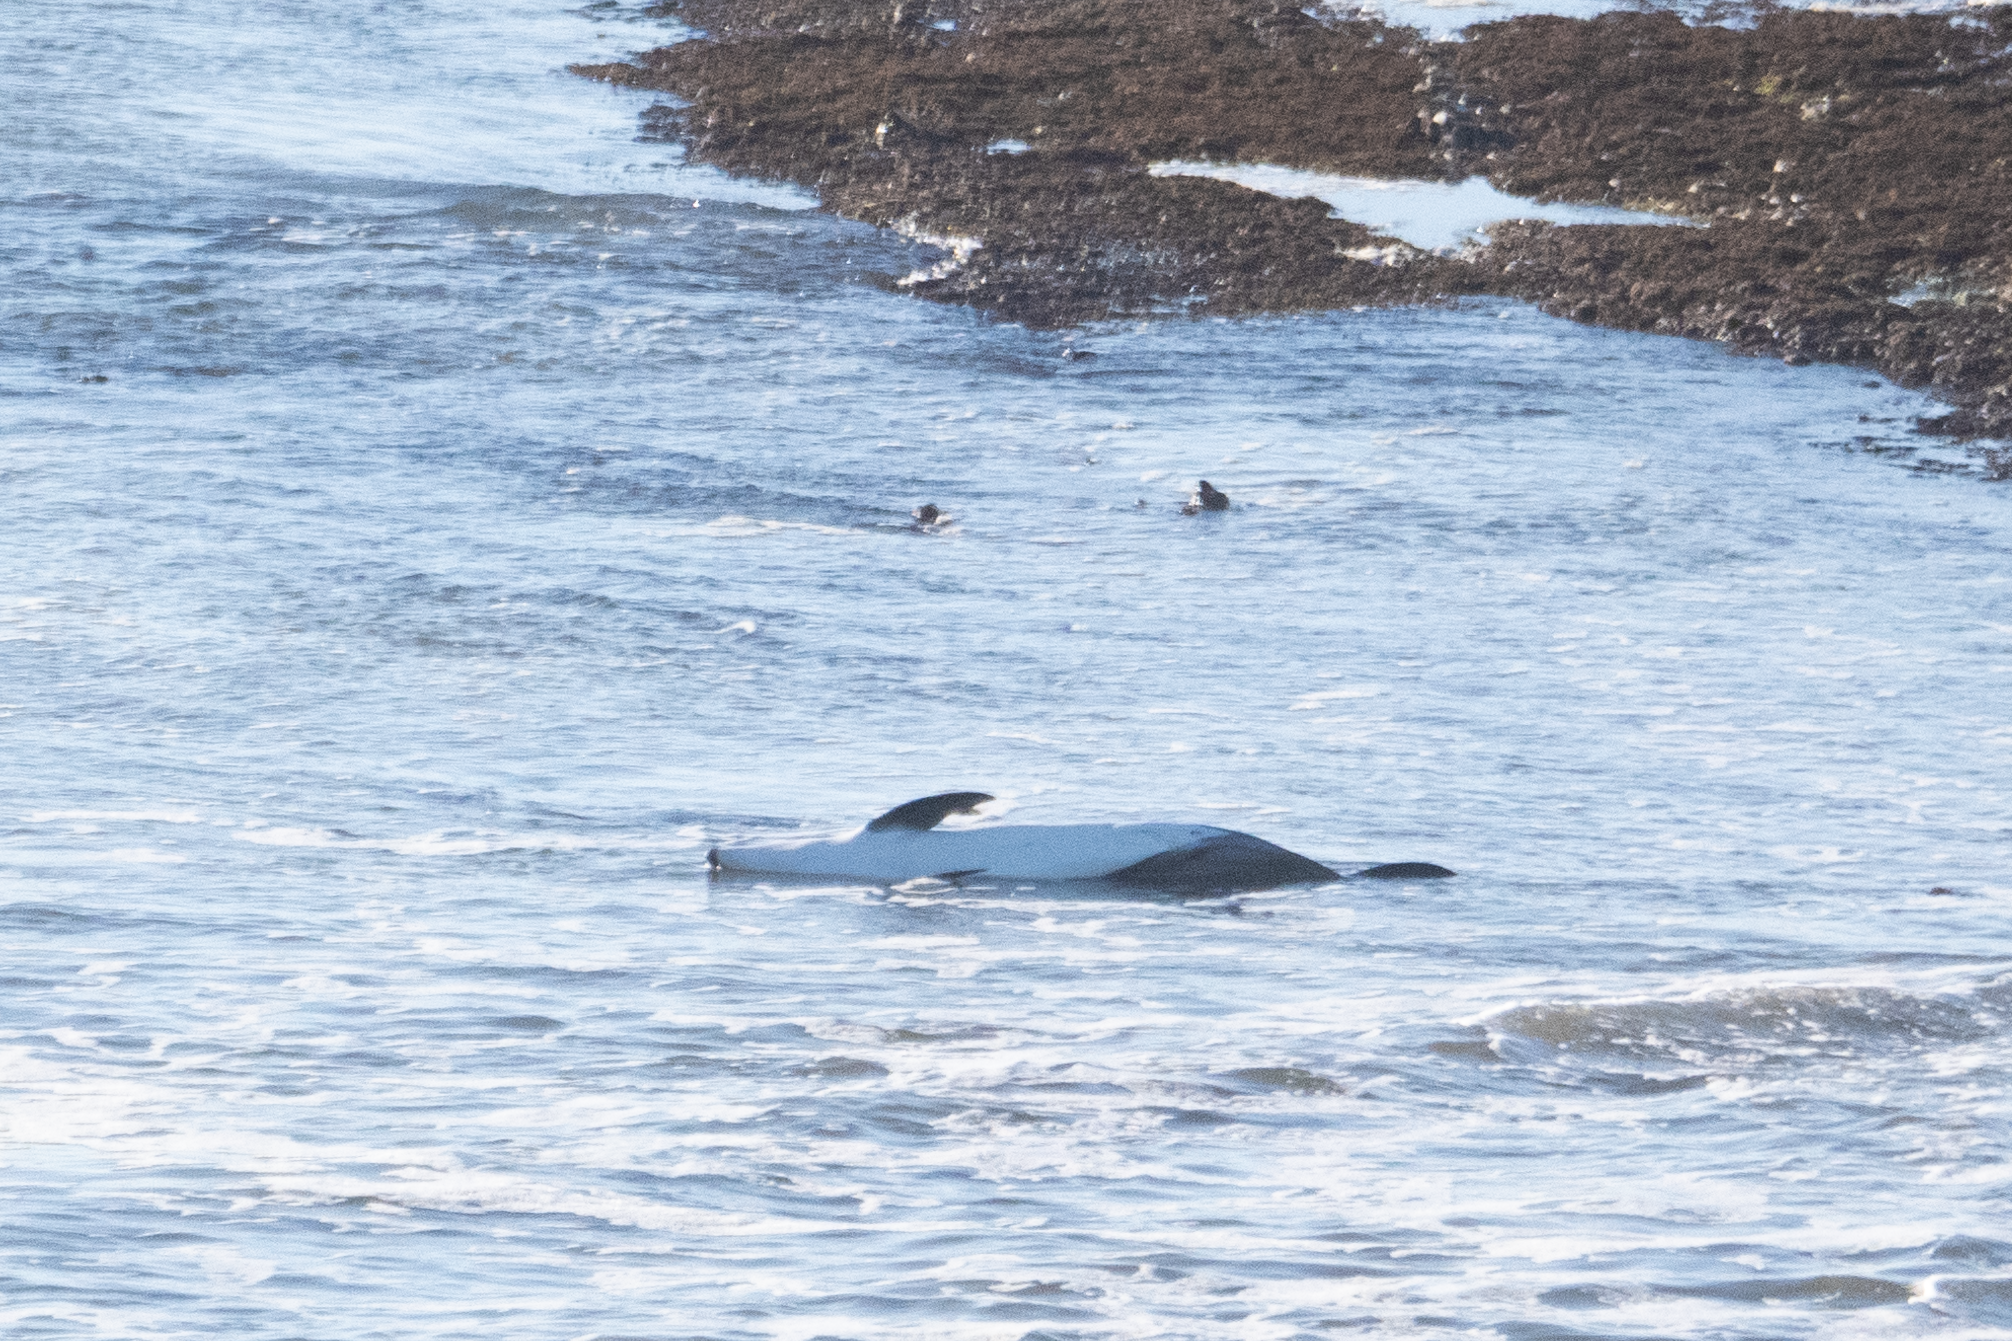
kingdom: Animalia
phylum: Chordata
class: Mammalia
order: Cetacea
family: Delphinidae
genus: Lagenorhynchus
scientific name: Lagenorhynchus obliquidens
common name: Pacific white-sided dolphin
